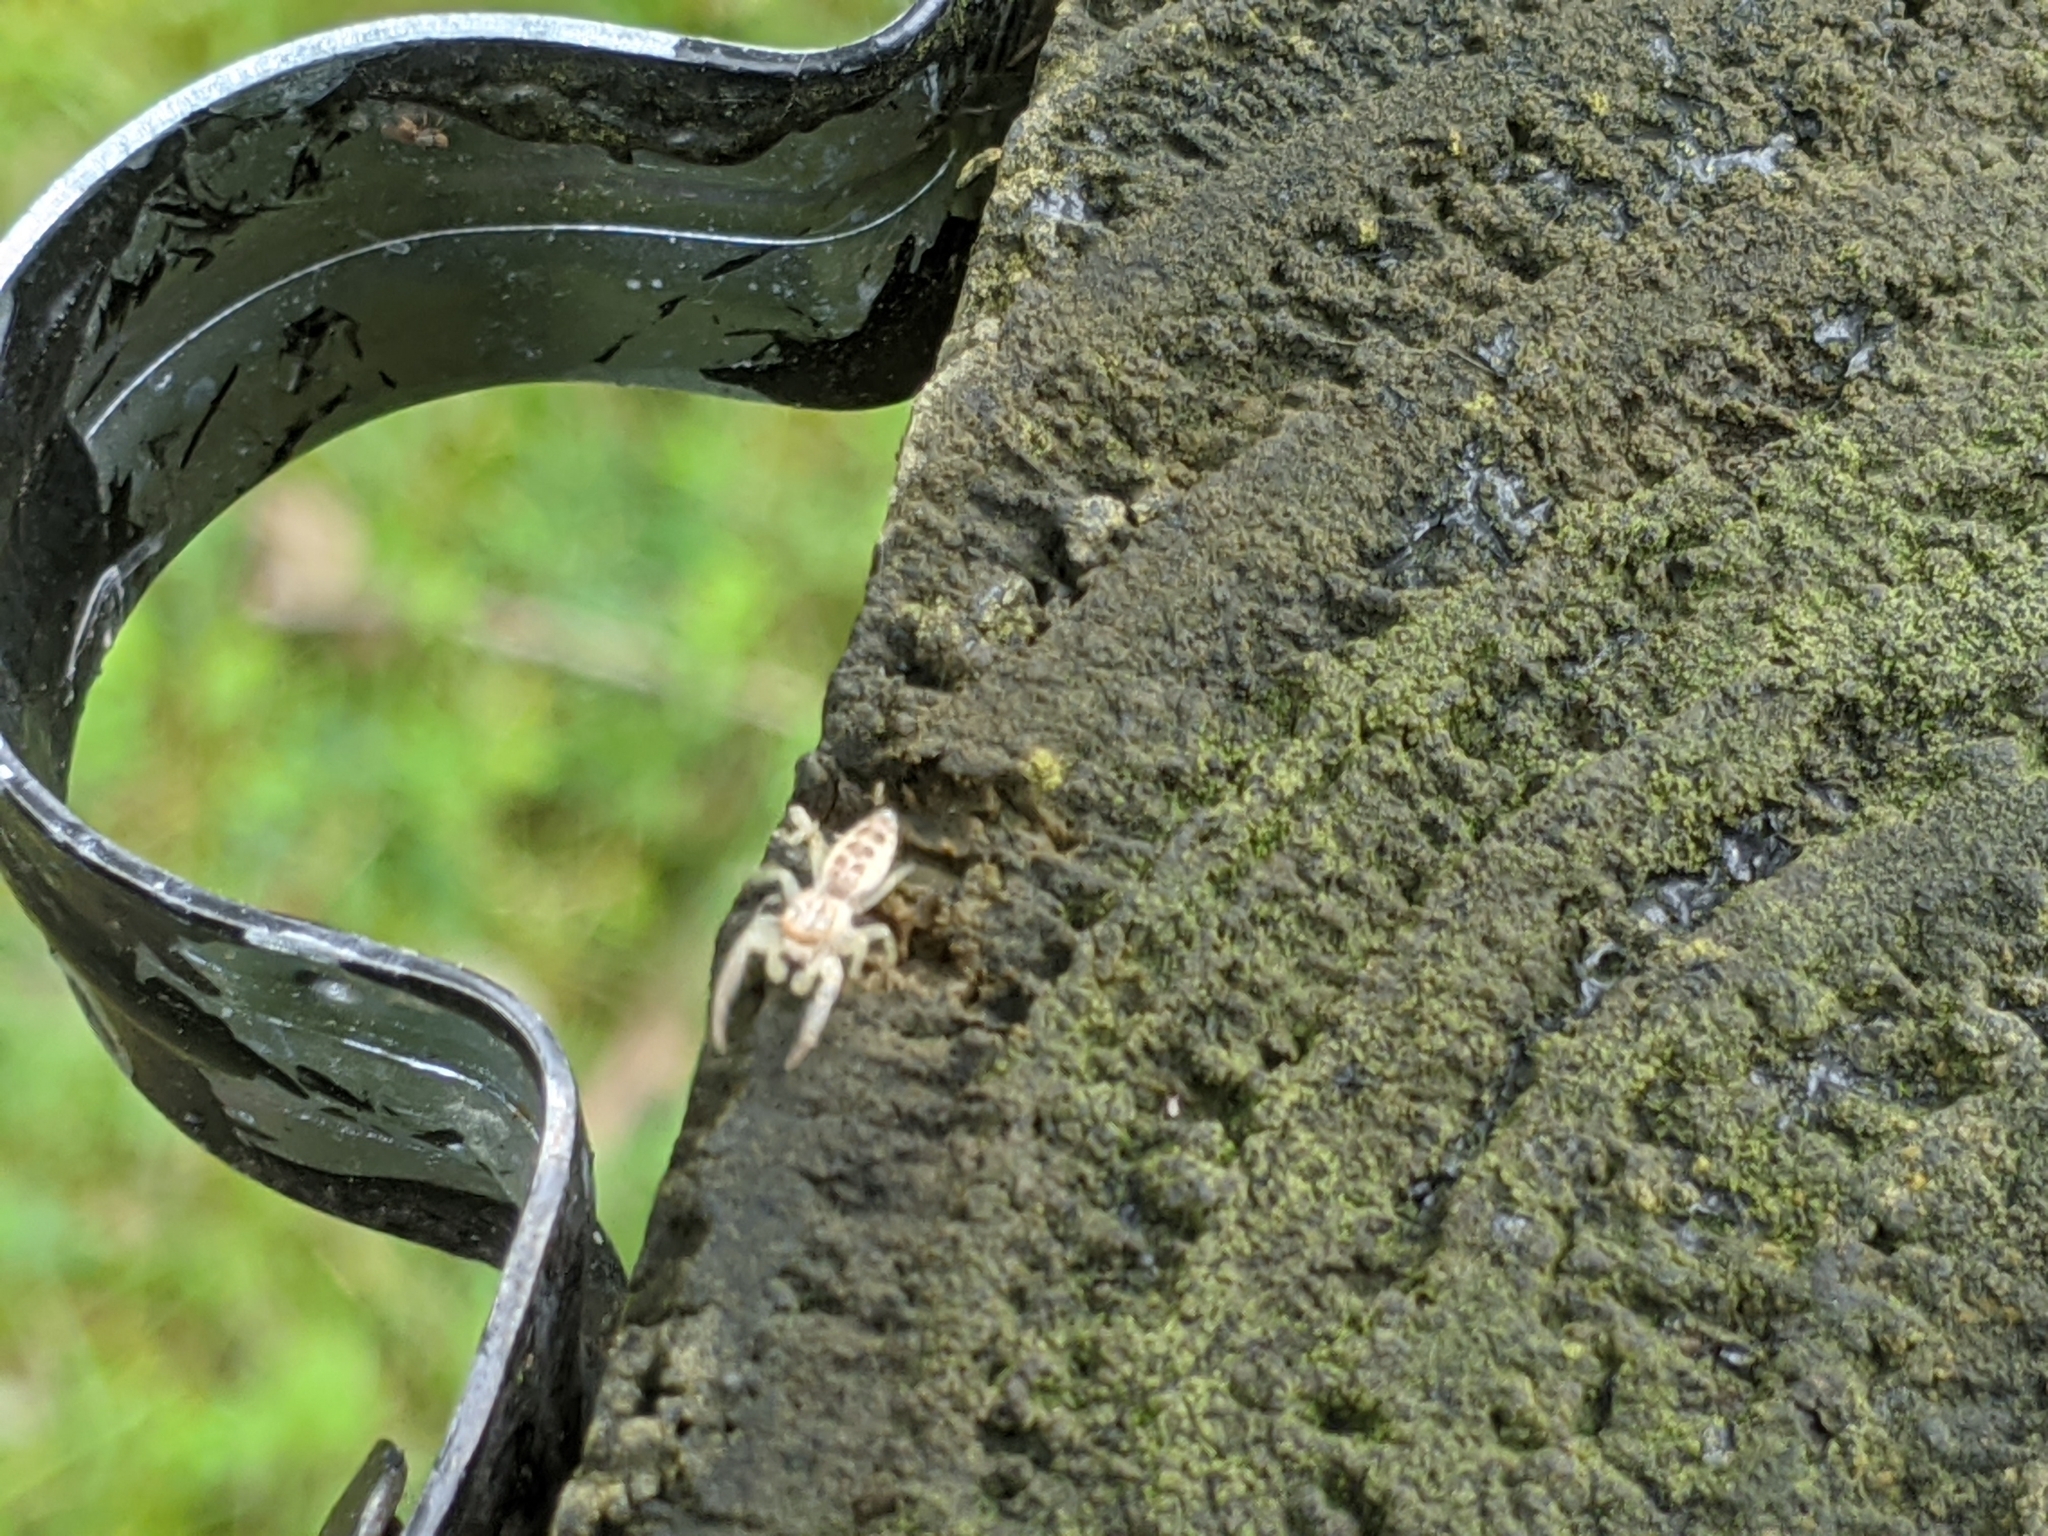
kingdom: Animalia
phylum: Arthropoda
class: Arachnida
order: Araneae
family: Salticidae
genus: Hentzia
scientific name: Hentzia
